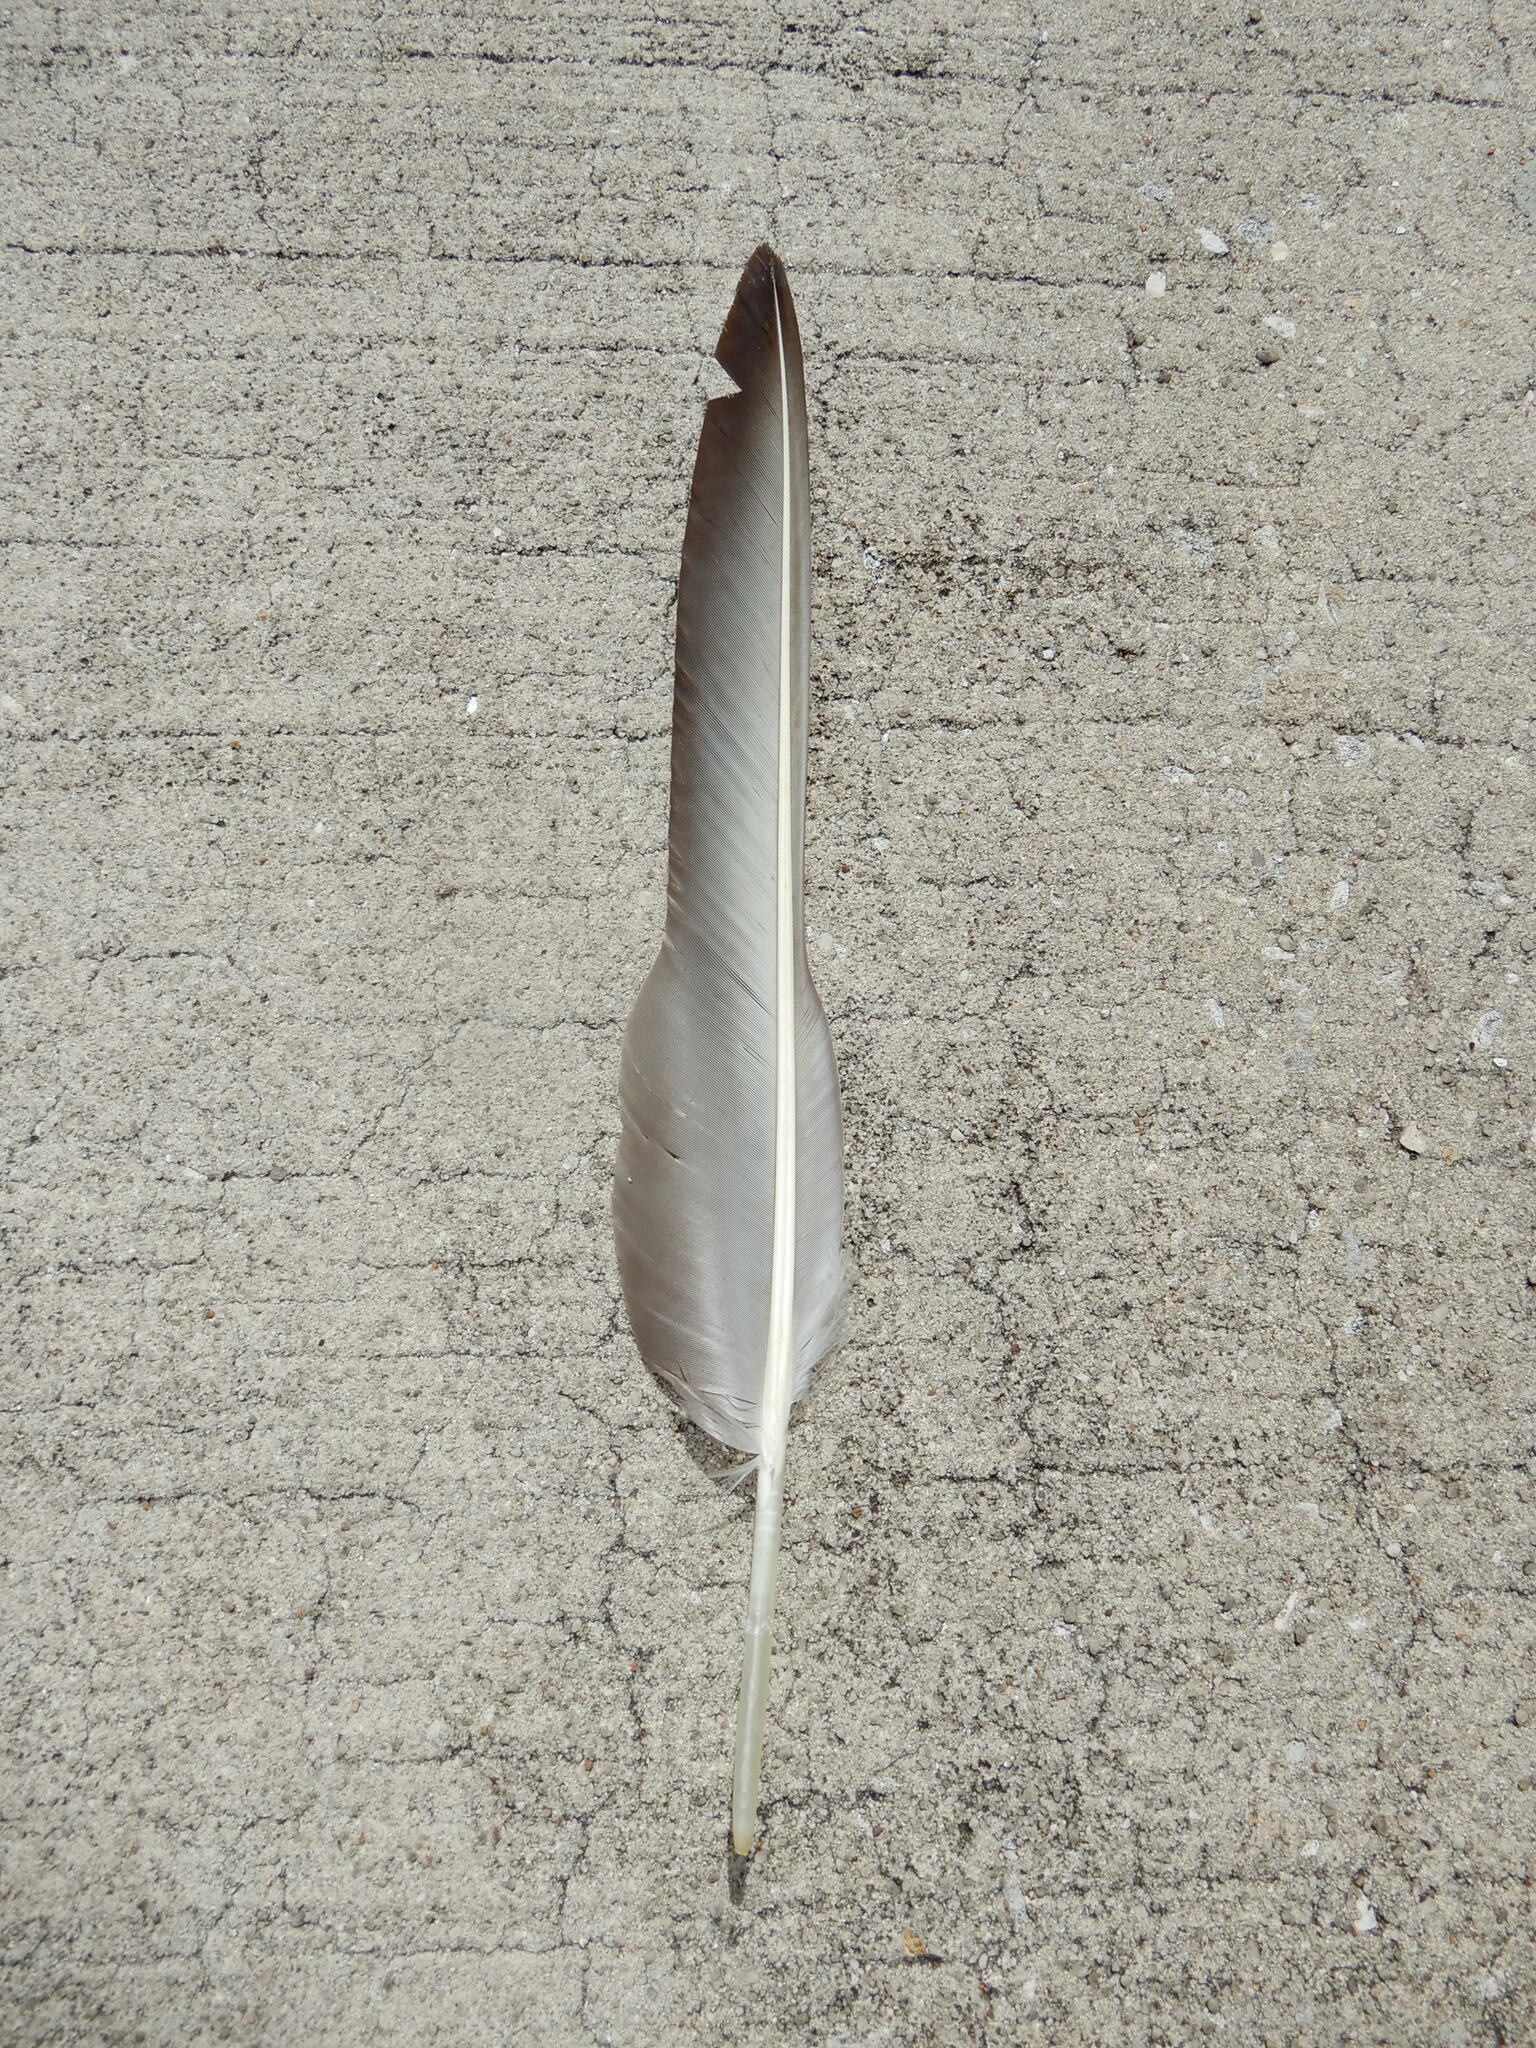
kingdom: Animalia
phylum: Chordata
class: Aves
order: Accipitriformes
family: Cathartidae
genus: Coragyps
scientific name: Coragyps atratus
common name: Black vulture
